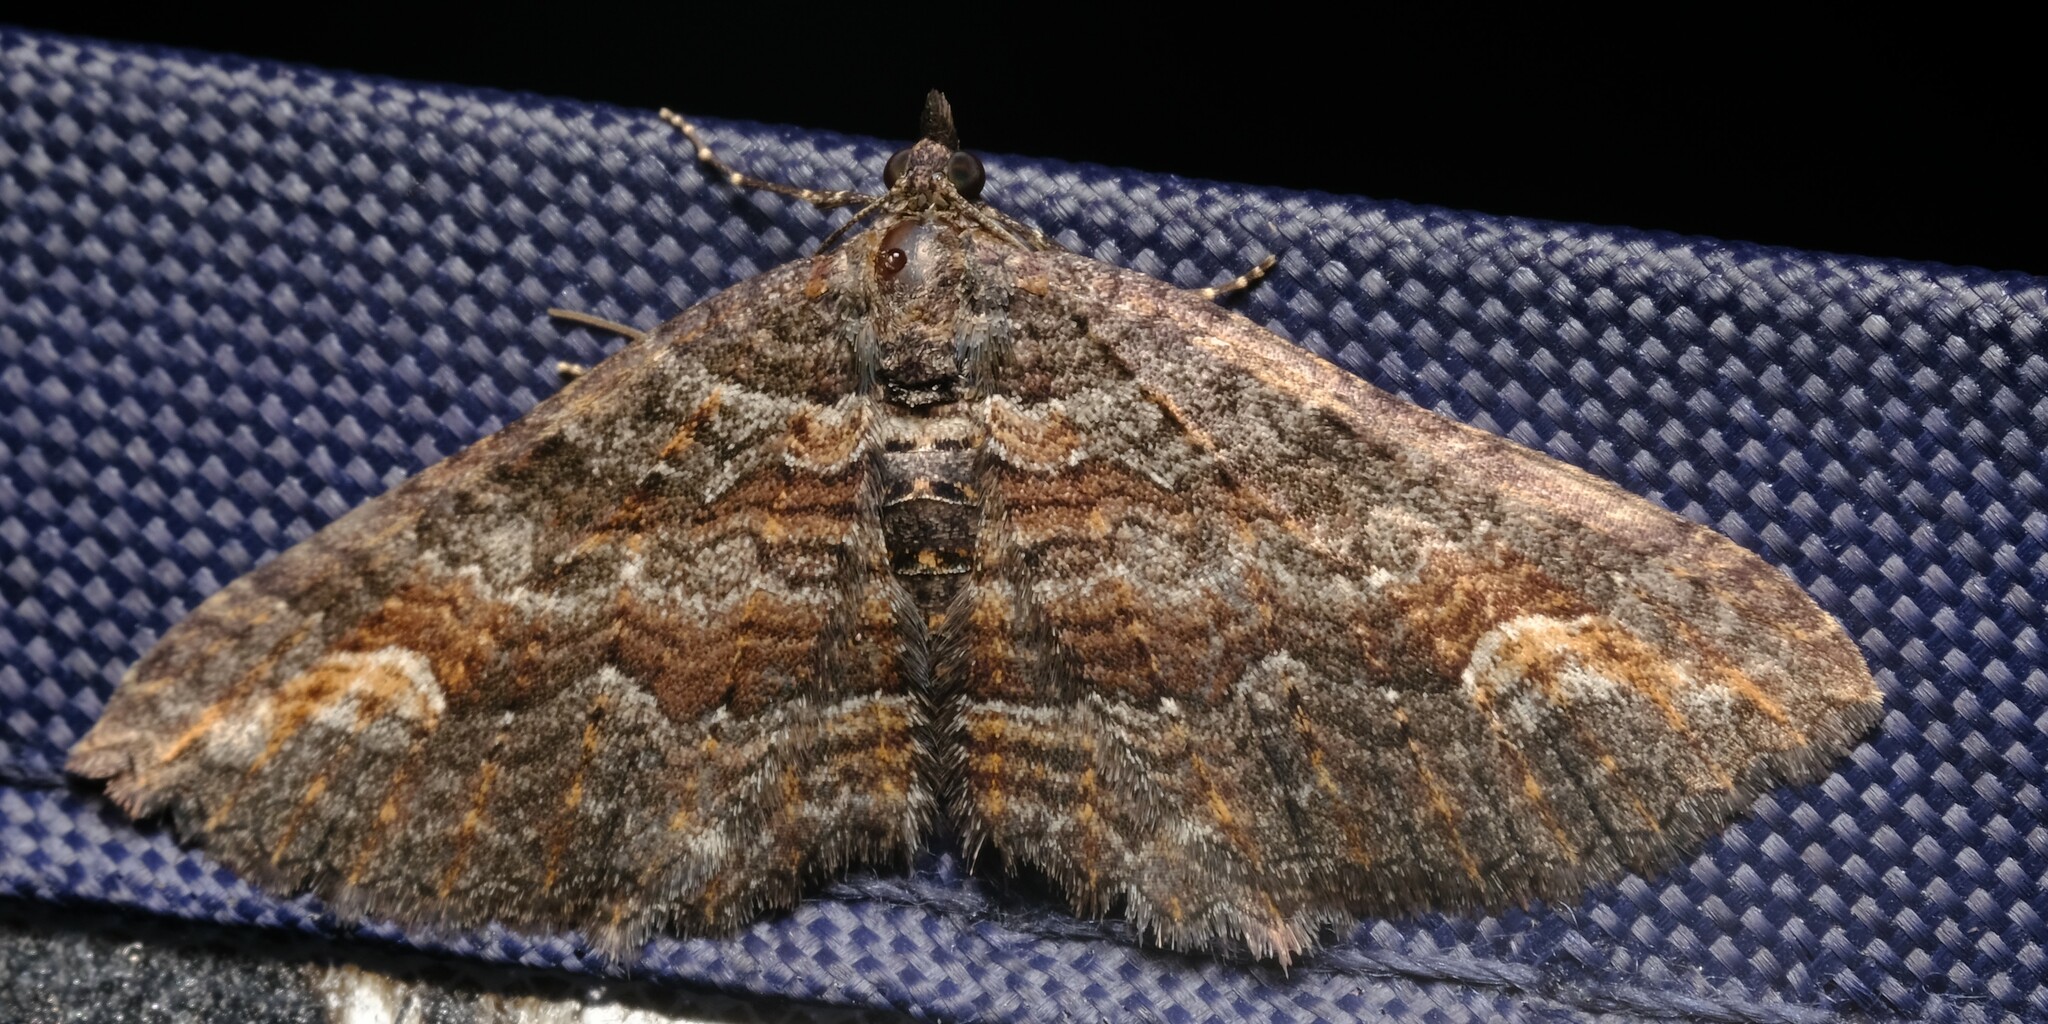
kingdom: Animalia
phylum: Arthropoda
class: Insecta
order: Lepidoptera
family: Geometridae
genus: Eupithecia
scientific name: Eupithecia Eucymatoge scotodes
